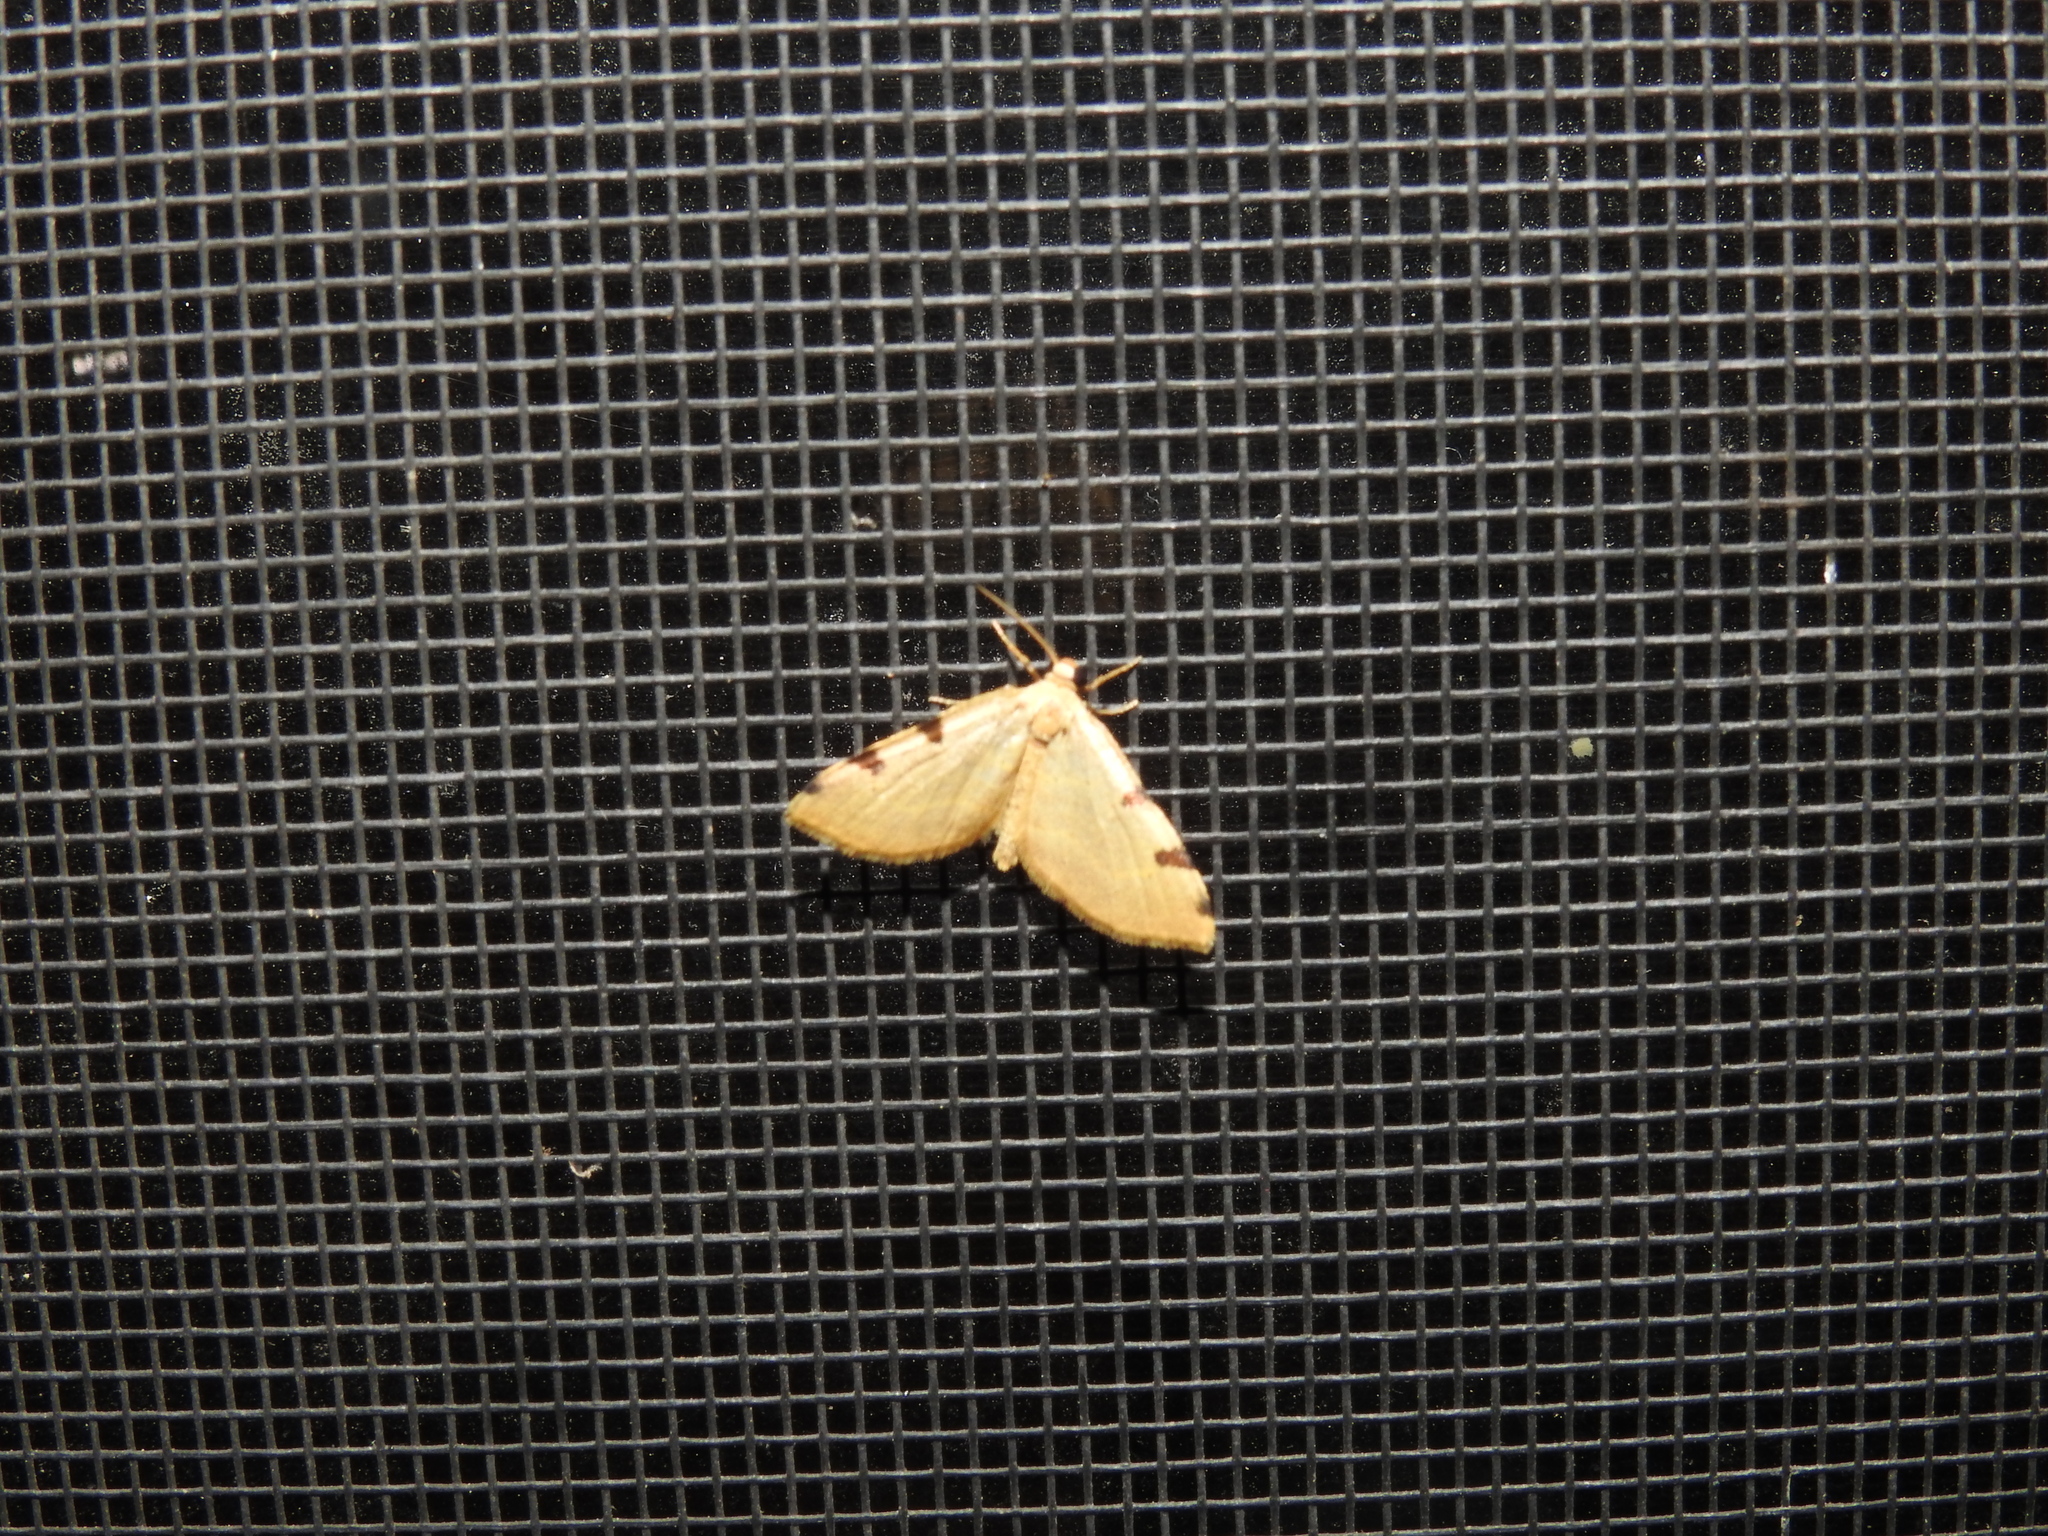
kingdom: Animalia
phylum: Arthropoda
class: Insecta
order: Lepidoptera
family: Geometridae
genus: Heterophleps
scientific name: Heterophleps triguttaria
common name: Three-spotted fillip
